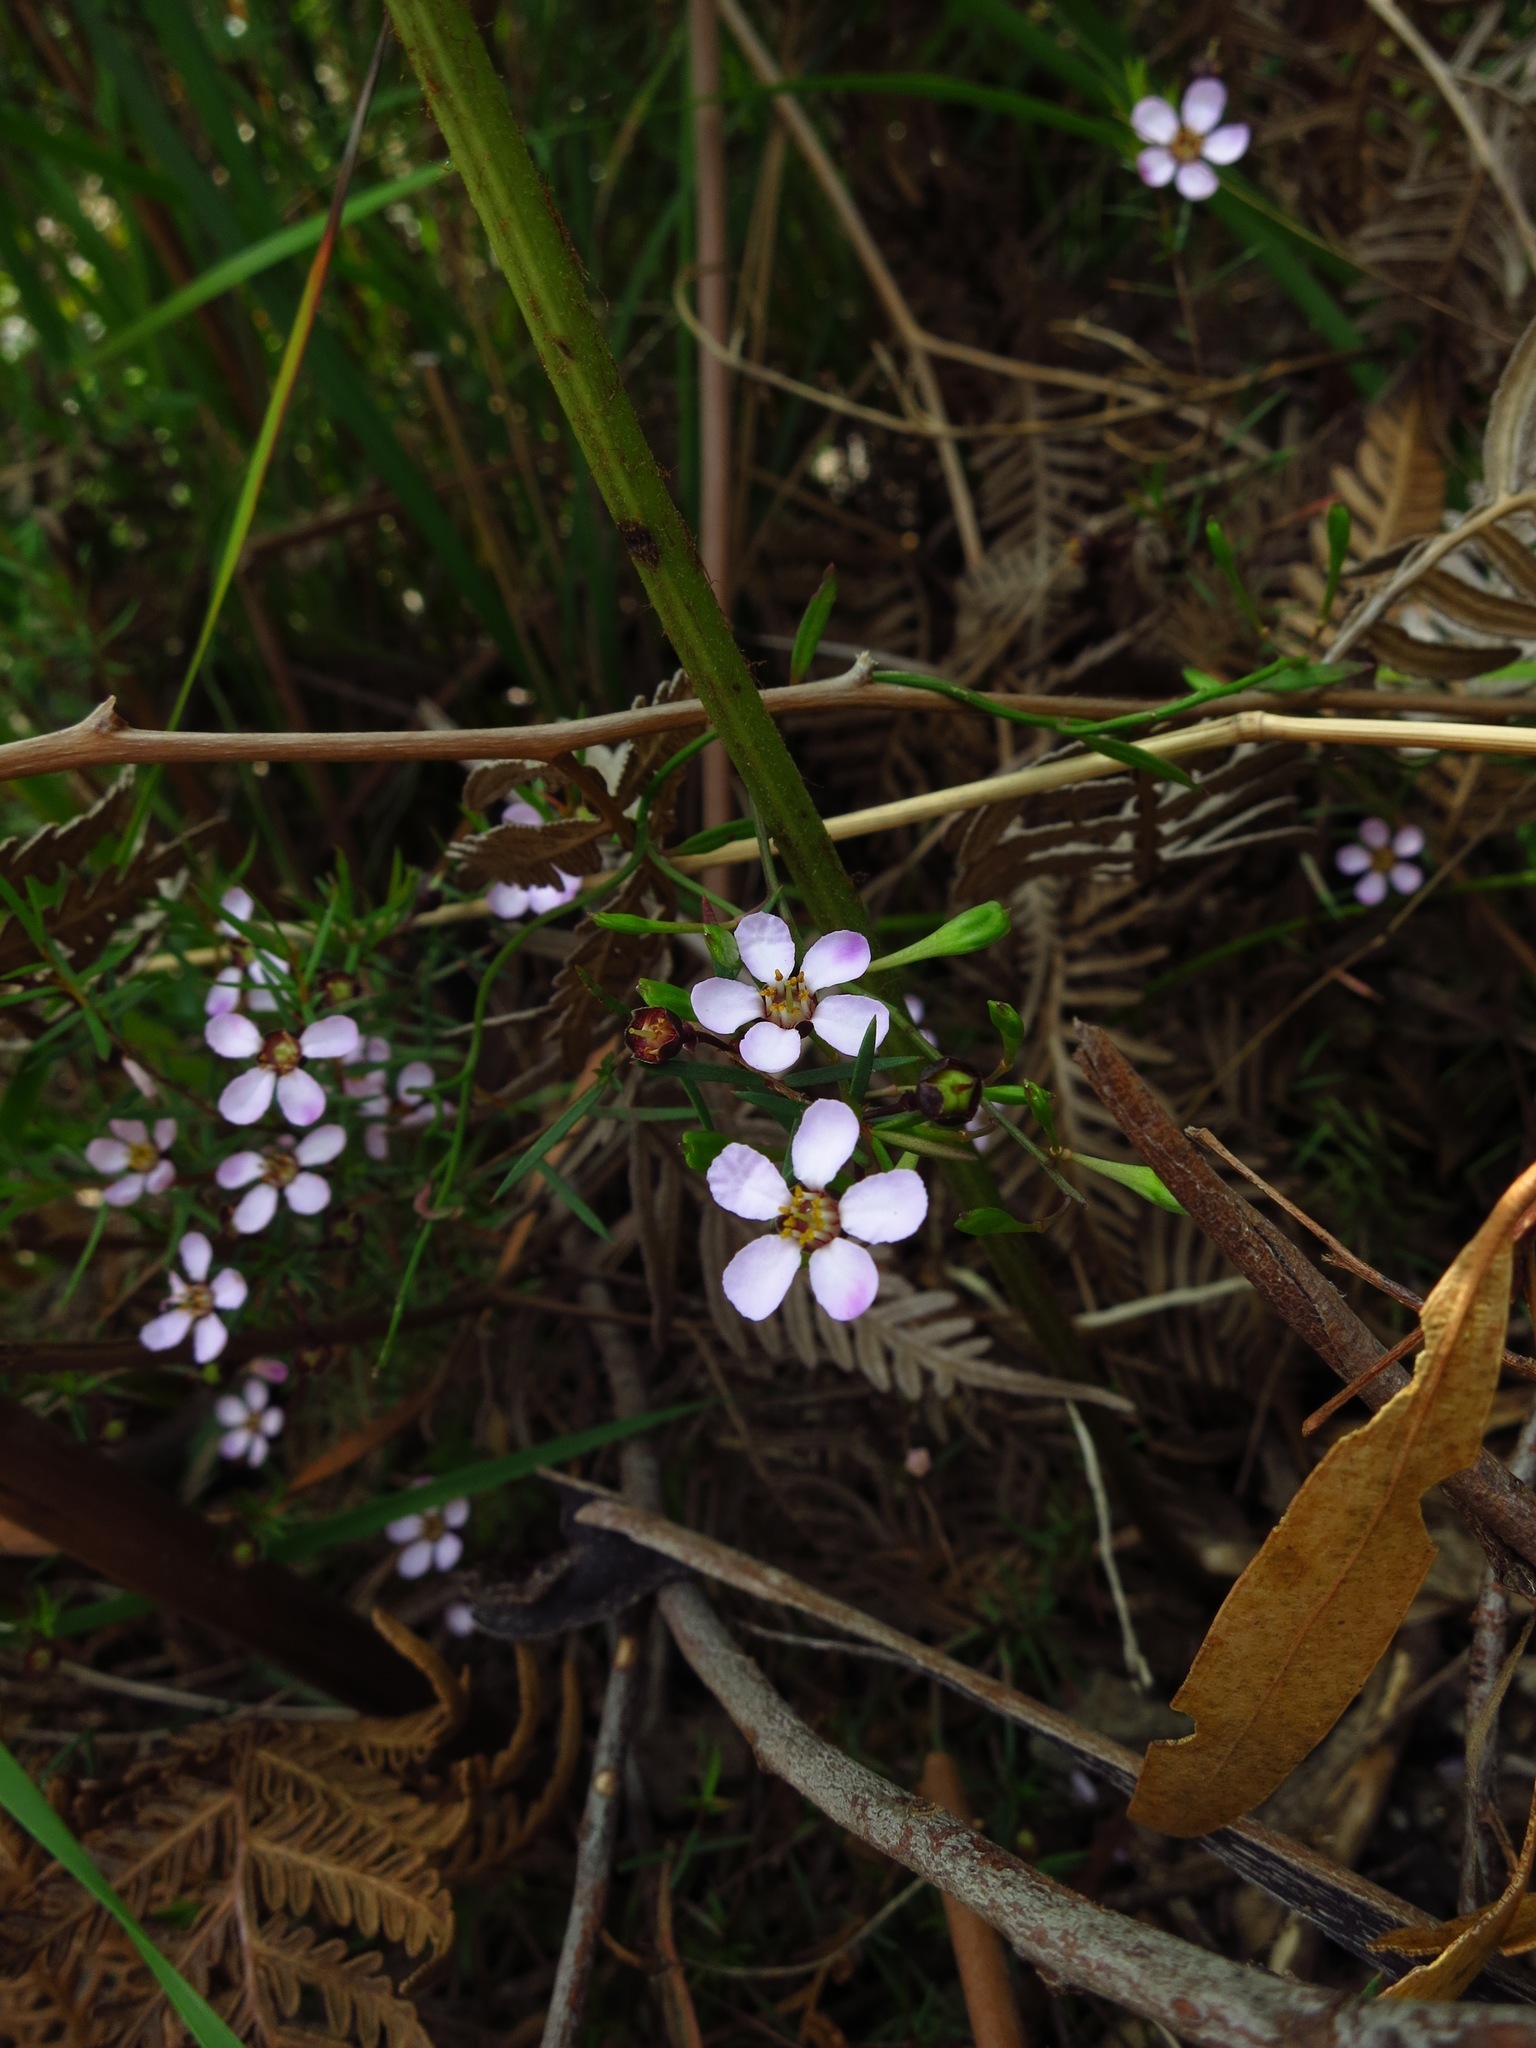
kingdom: Plantae
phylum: Tracheophyta
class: Magnoliopsida
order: Myrtales
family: Myrtaceae
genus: Euryomyrtus
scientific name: Euryomyrtus ramosissima
